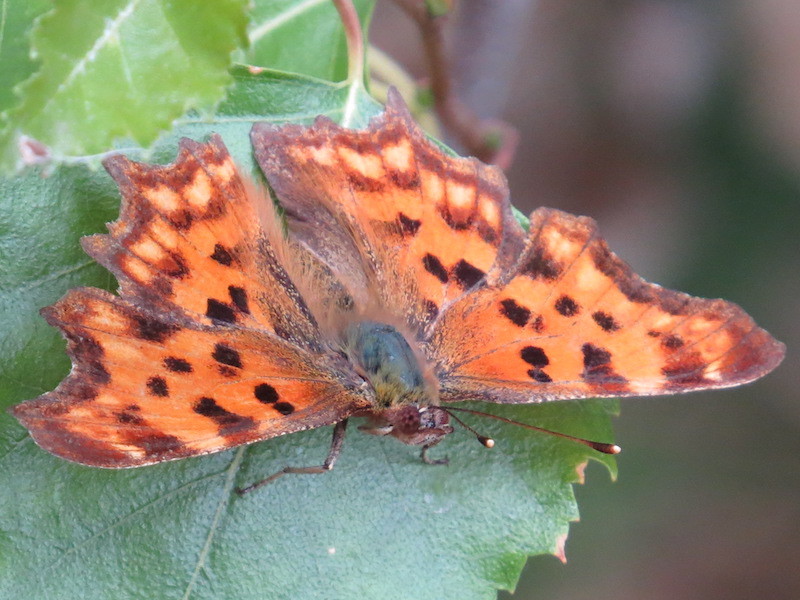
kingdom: Animalia
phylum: Arthropoda
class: Insecta
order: Lepidoptera
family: Nymphalidae
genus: Polygonia
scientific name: Polygonia c-album
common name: Comma
